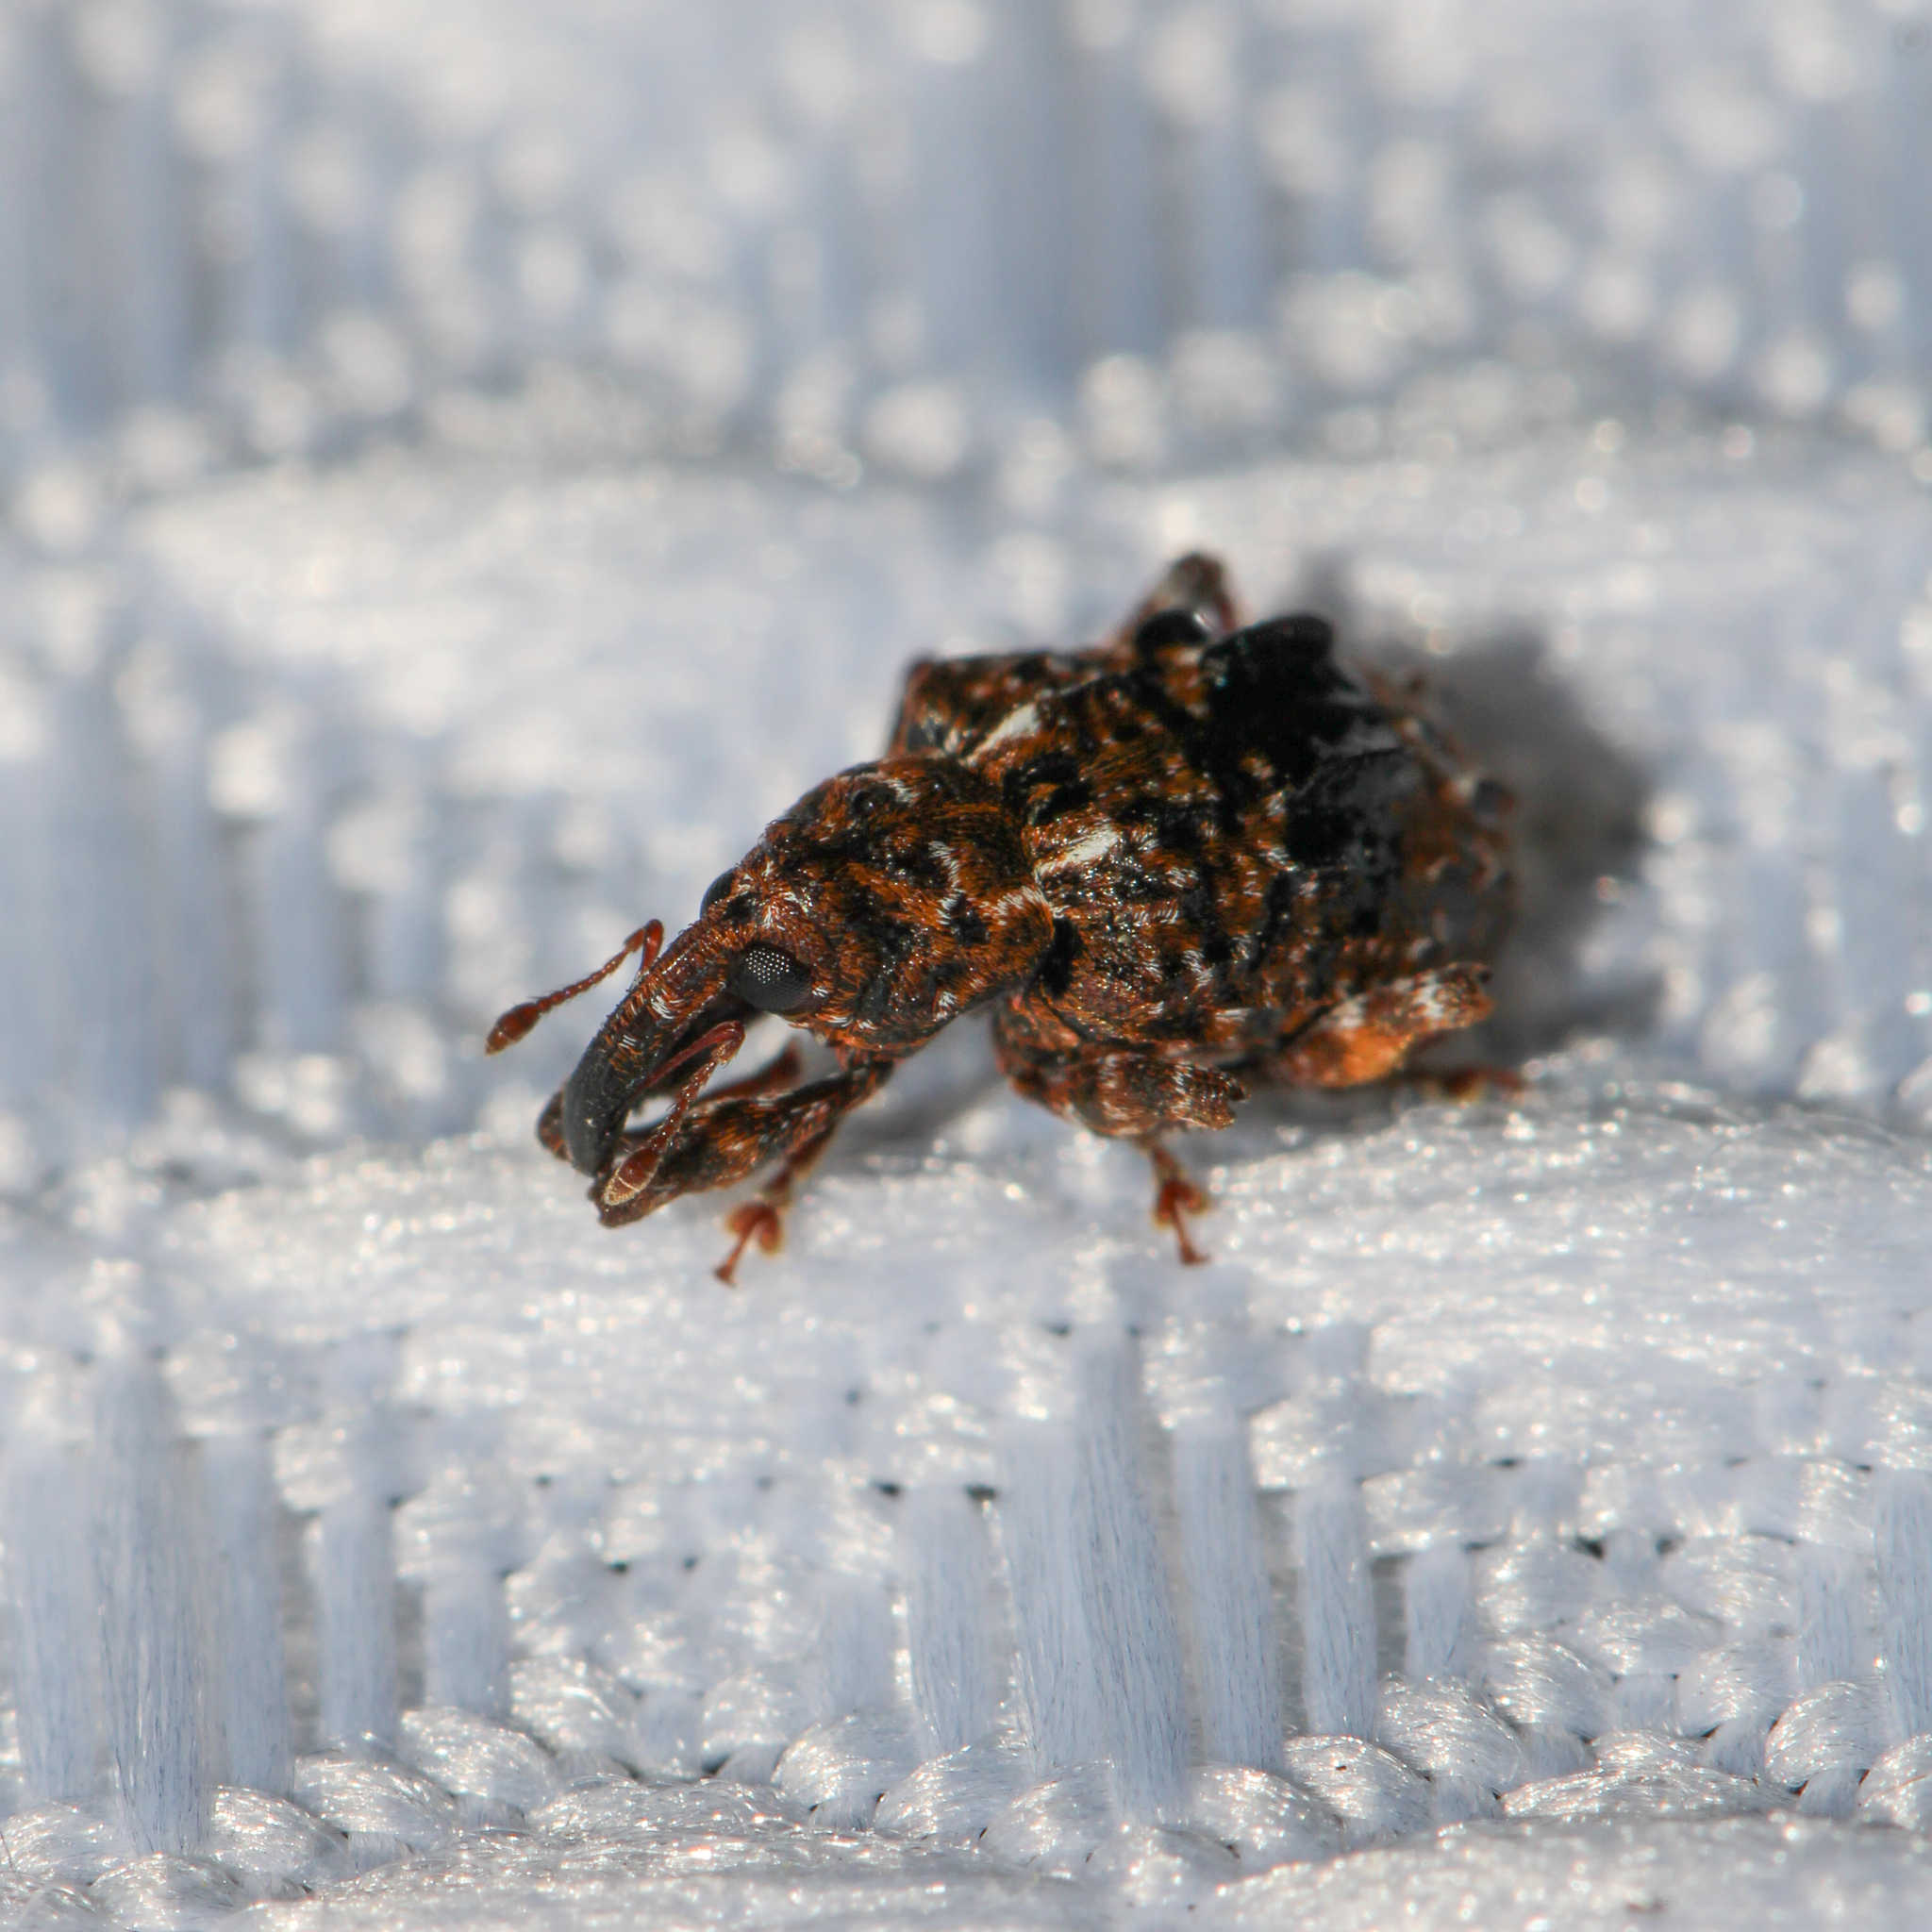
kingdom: Animalia
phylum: Arthropoda
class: Insecta
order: Coleoptera
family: Curculionidae
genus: Conotrachelus
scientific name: Conotrachelus nenuphar
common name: Plum curculio
